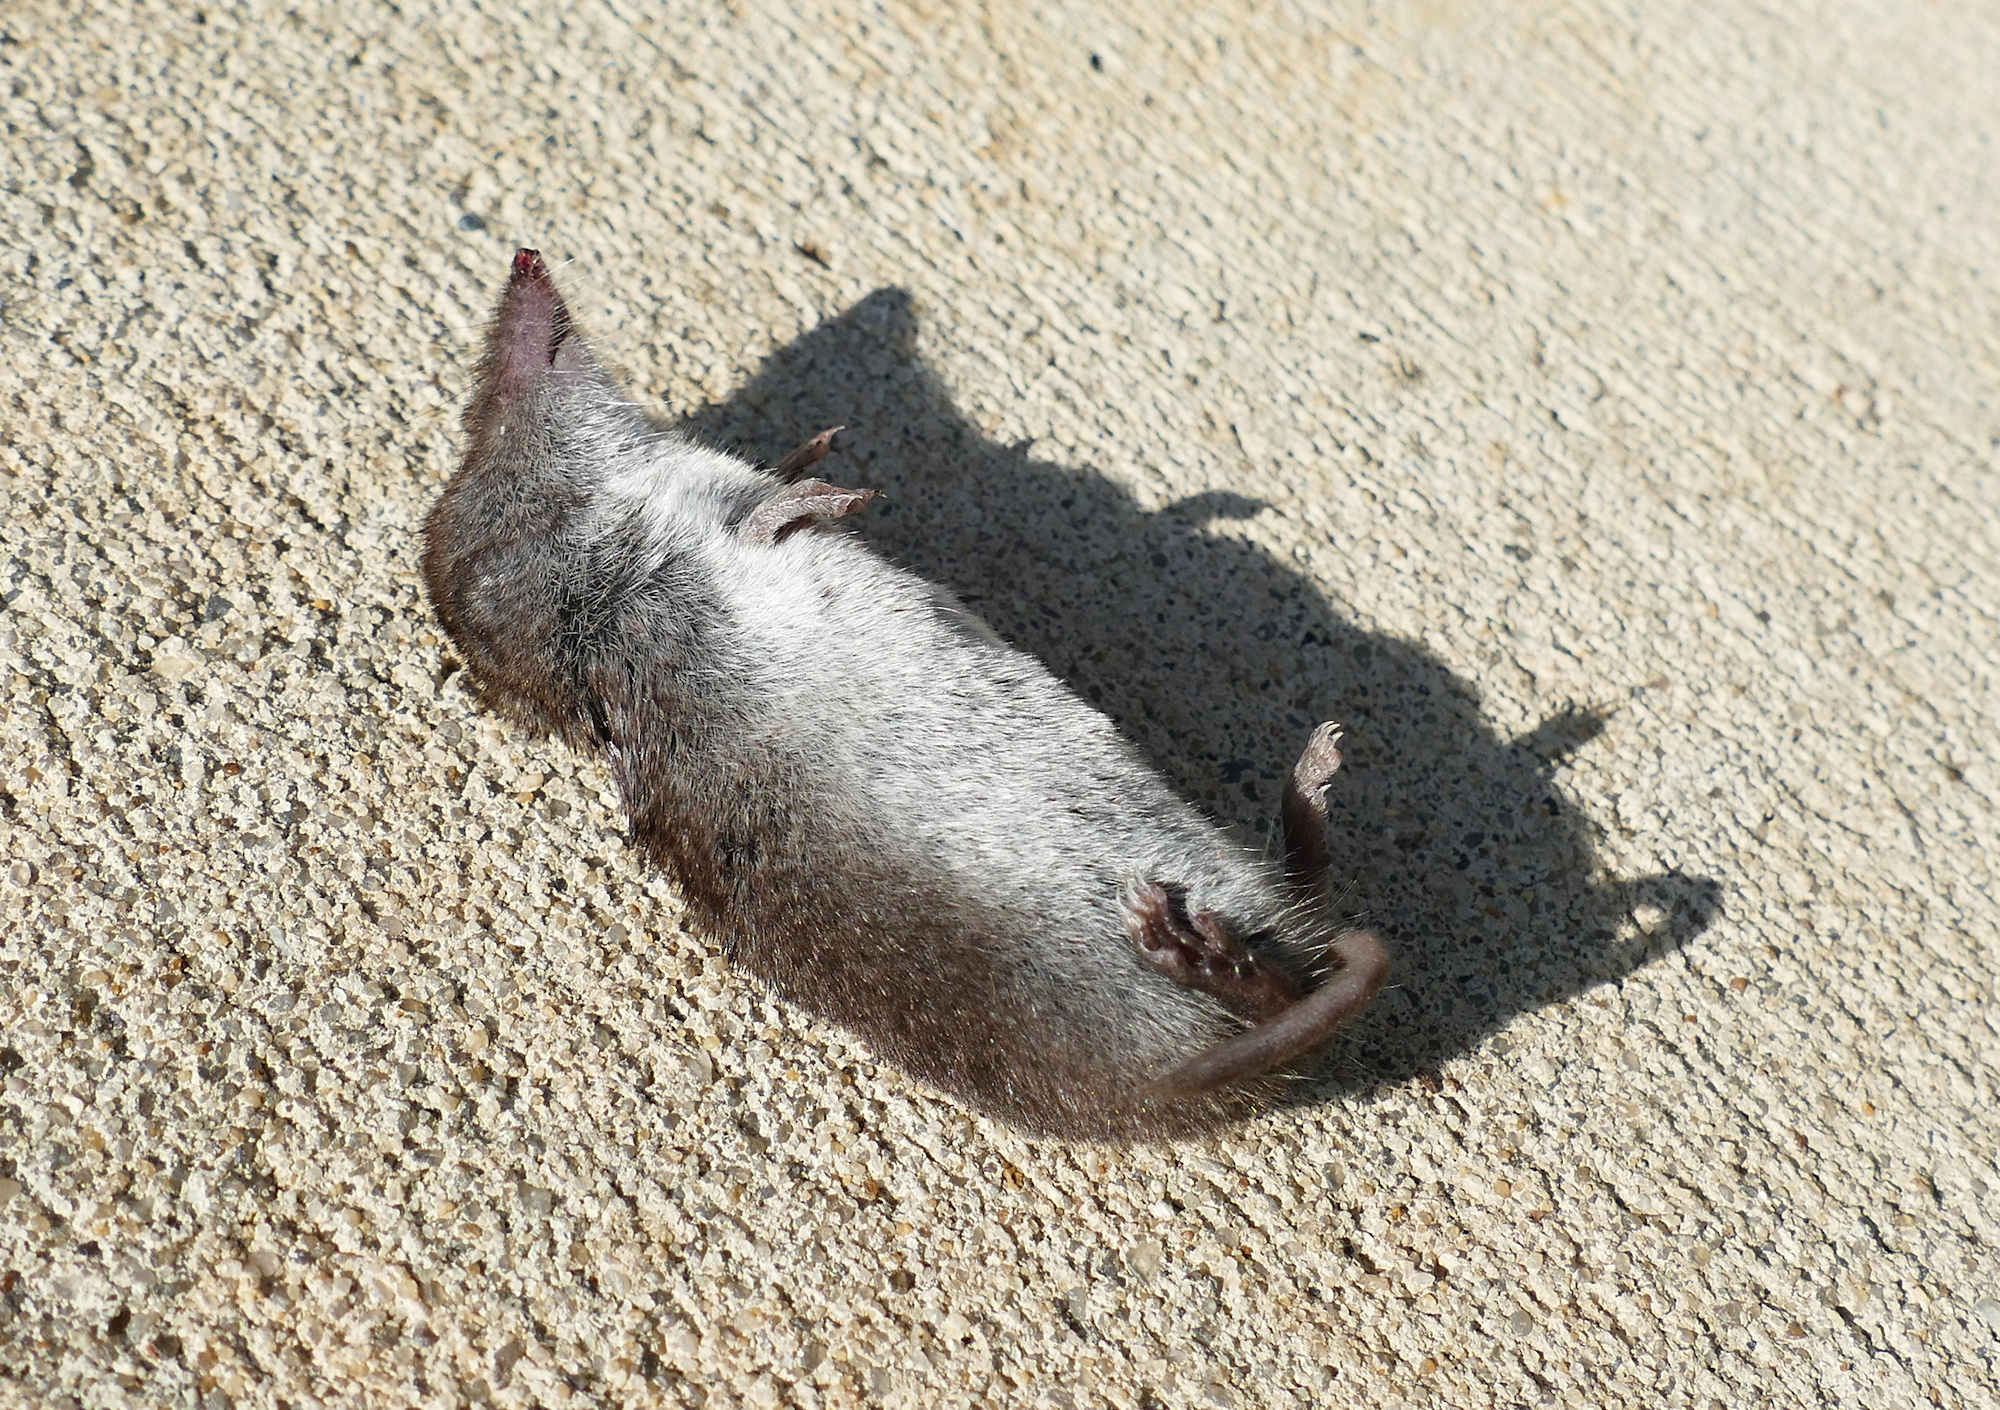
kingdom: Animalia
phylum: Chordata
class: Mammalia
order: Soricomorpha
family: Soricidae
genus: Cryptotis
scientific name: Cryptotis parva
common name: North american least shrew
